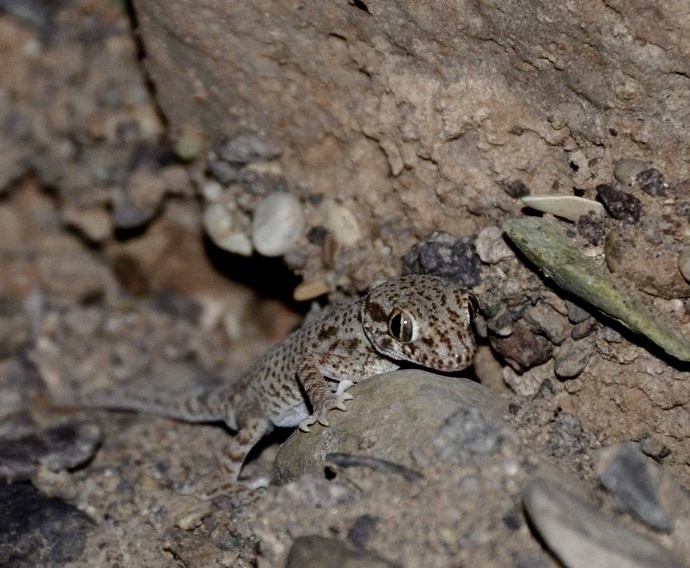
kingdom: Animalia
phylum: Chordata
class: Squamata
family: Gekkonidae
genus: Bunopus
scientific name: Bunopus crassicauda
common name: Thick-tailed tuberculated gecko
